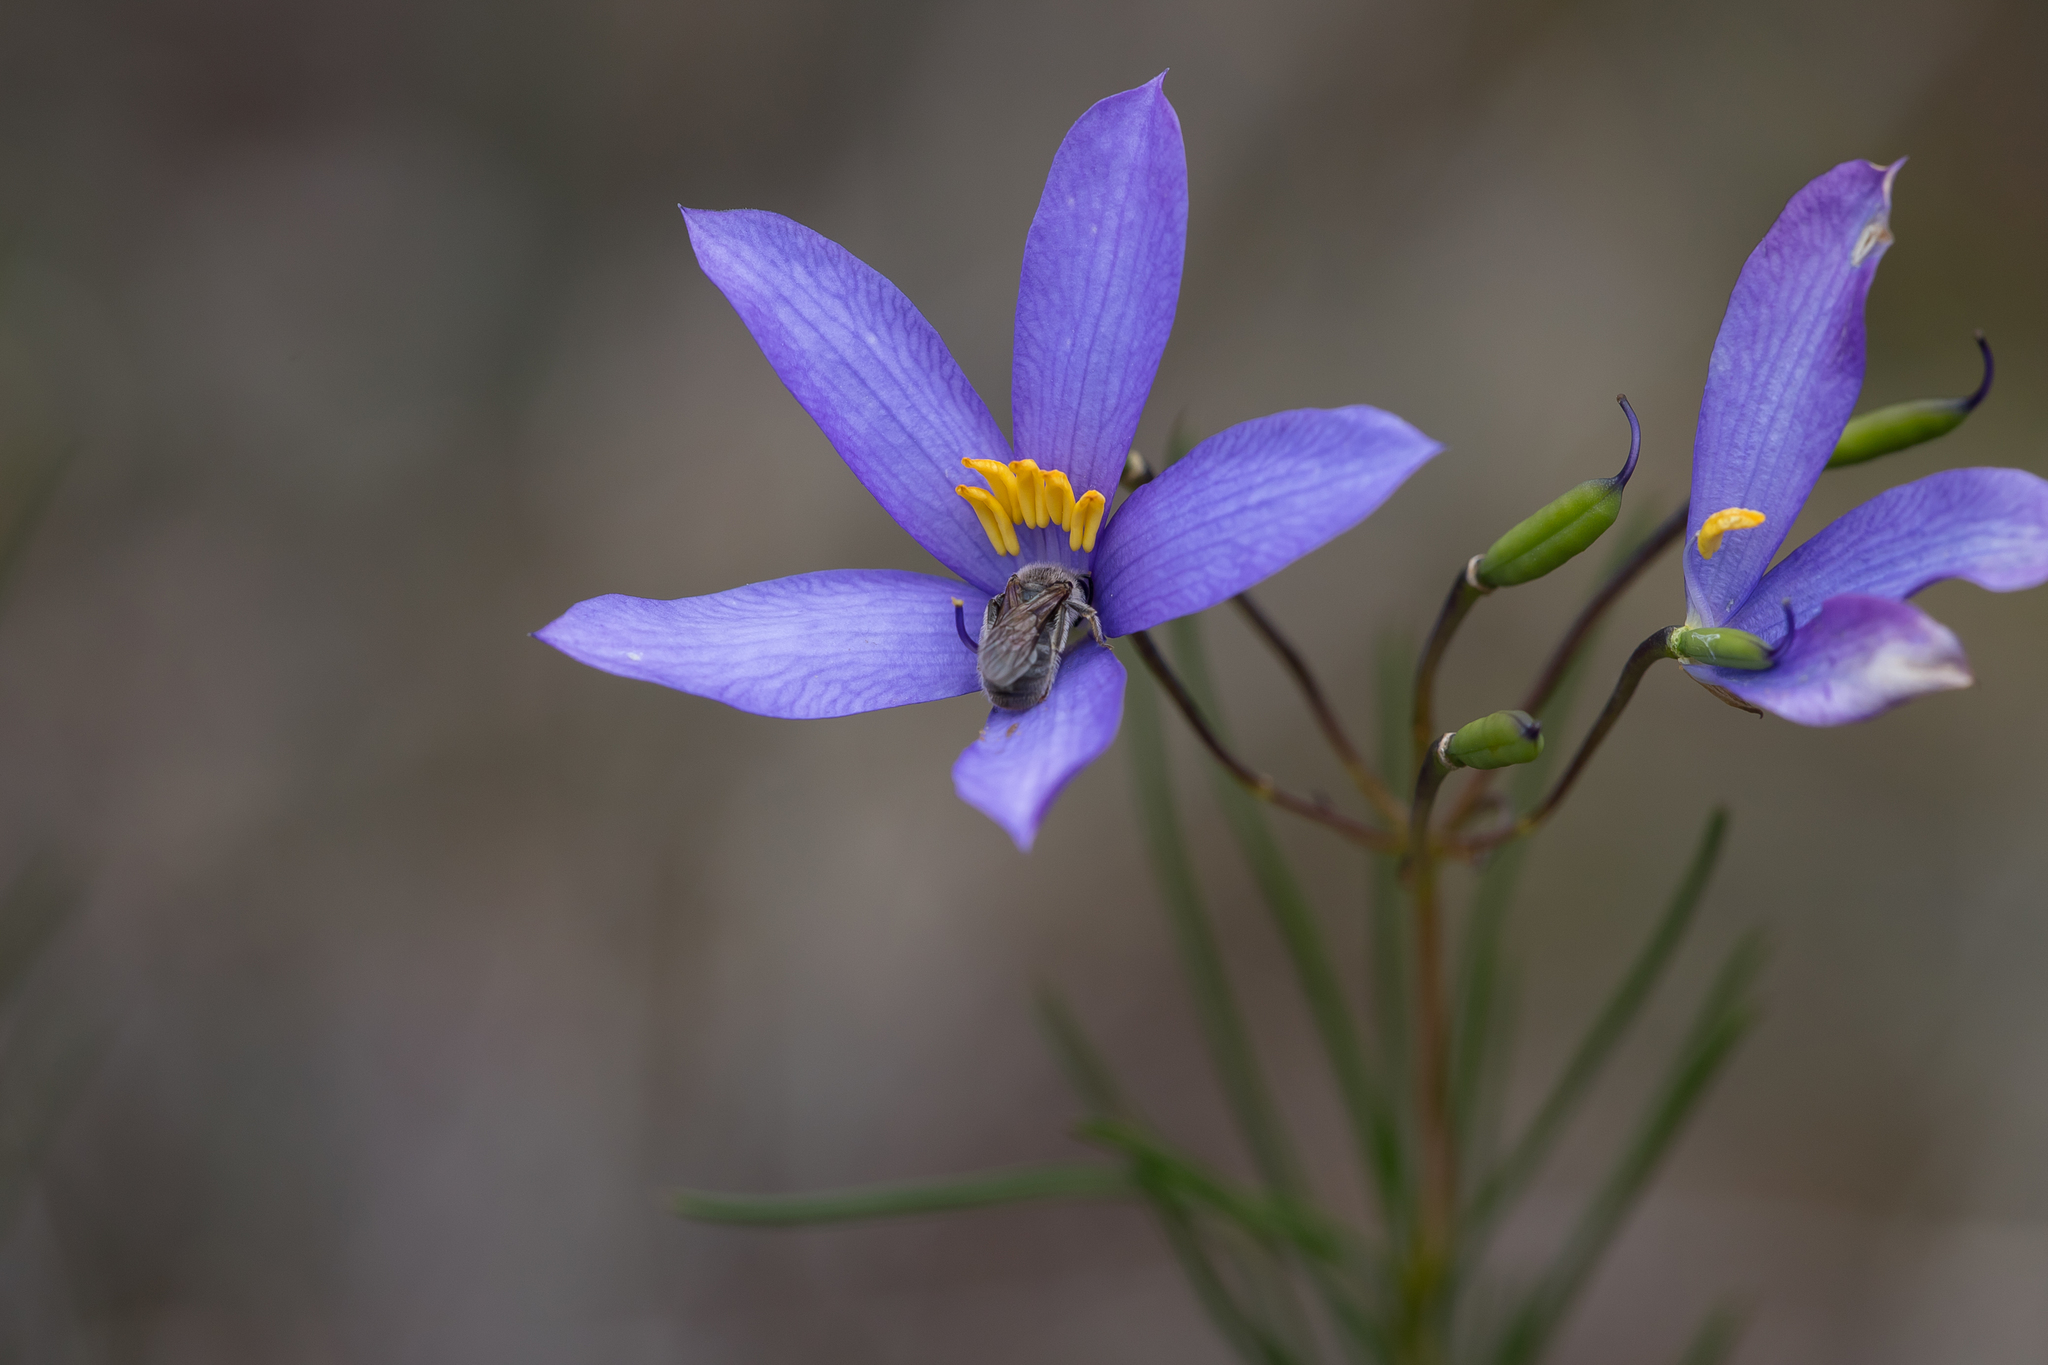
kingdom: Plantae
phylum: Tracheophyta
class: Magnoliopsida
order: Apiales
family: Pittosporaceae
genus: Cheiranthera
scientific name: Cheiranthera alternifolia
